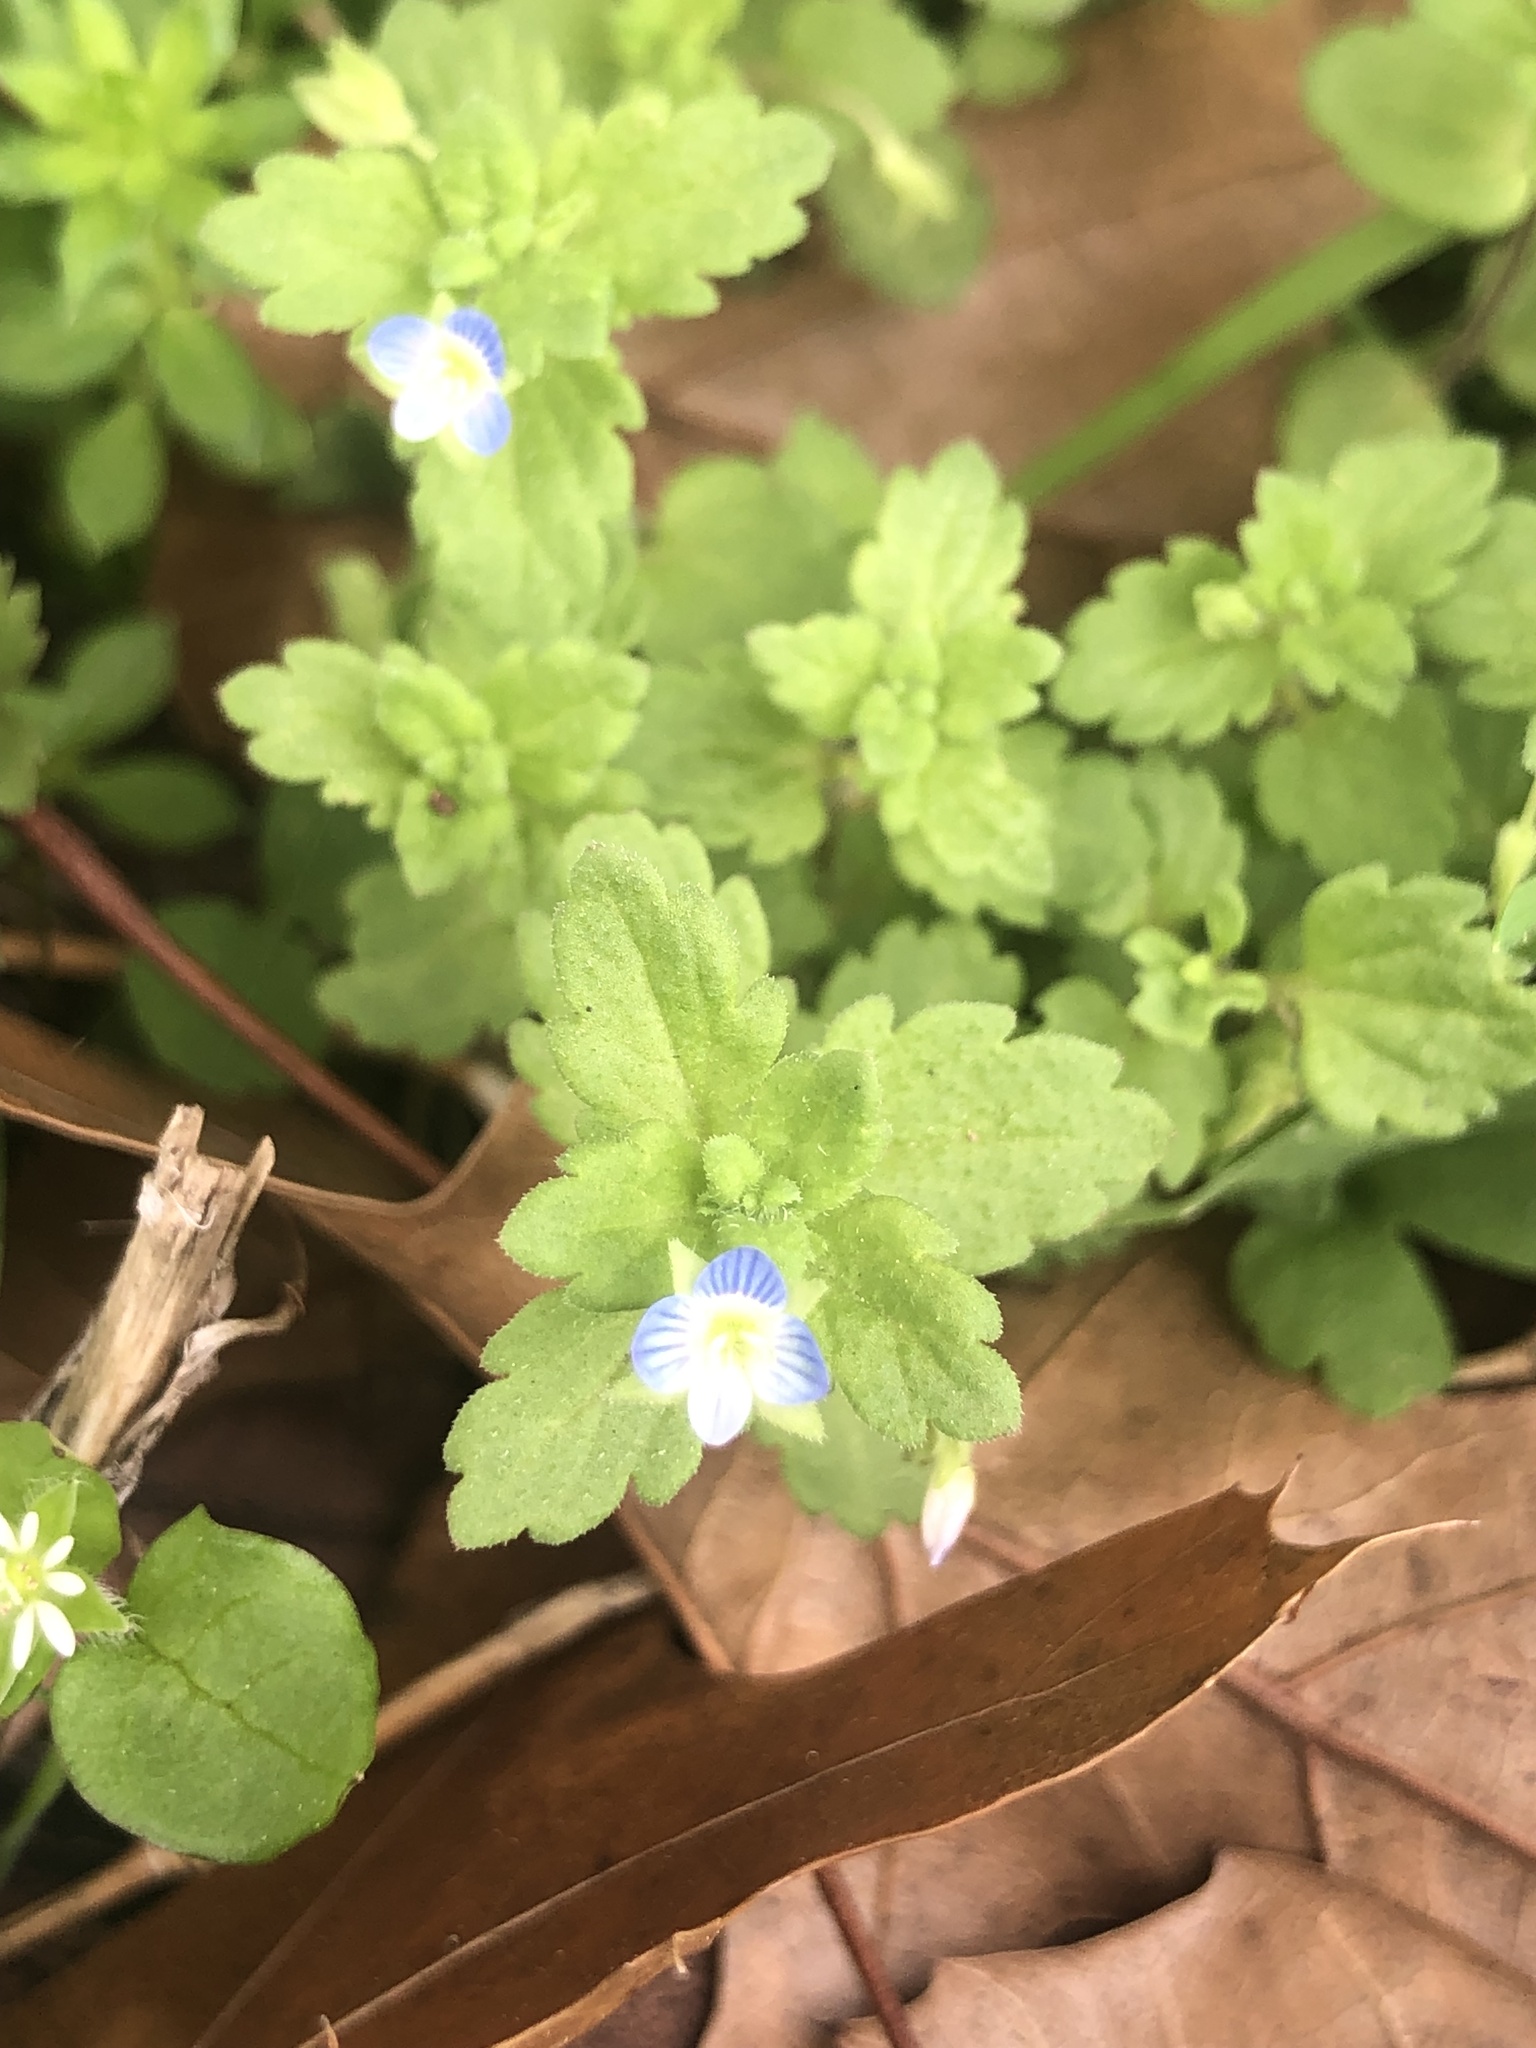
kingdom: Plantae
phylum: Tracheophyta
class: Magnoliopsida
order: Lamiales
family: Plantaginaceae
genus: Veronica
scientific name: Veronica persica
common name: Common field-speedwell
